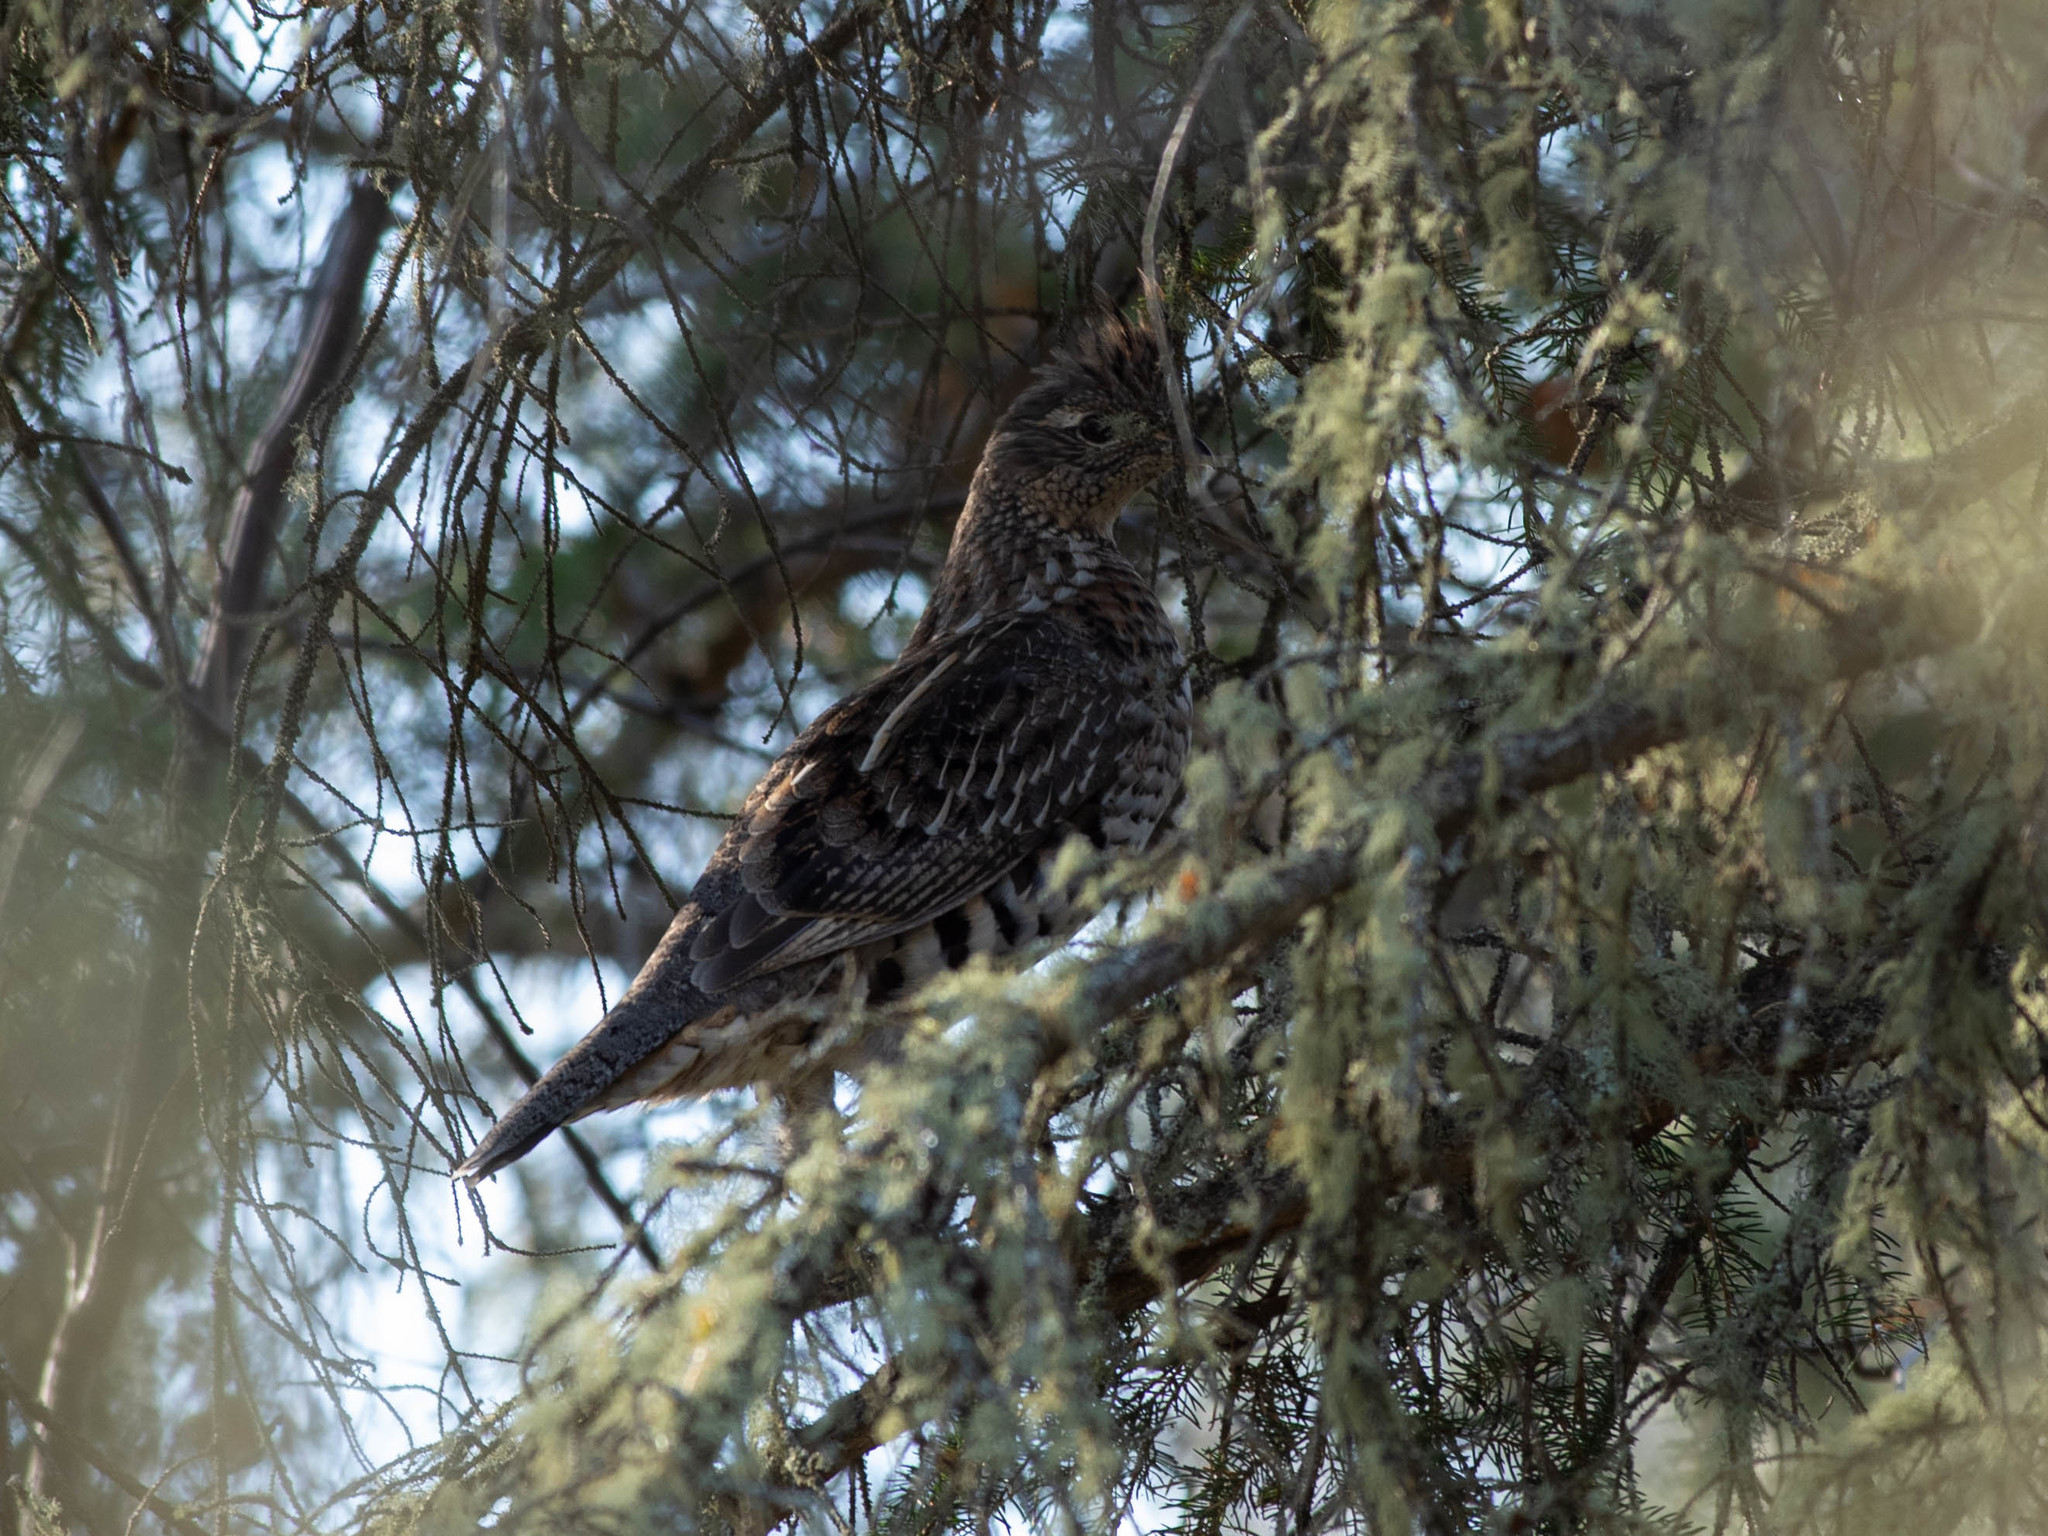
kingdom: Animalia
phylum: Chordata
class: Aves
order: Galliformes
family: Phasianidae
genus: Bonasa
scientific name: Bonasa umbellus
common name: Ruffed grouse
